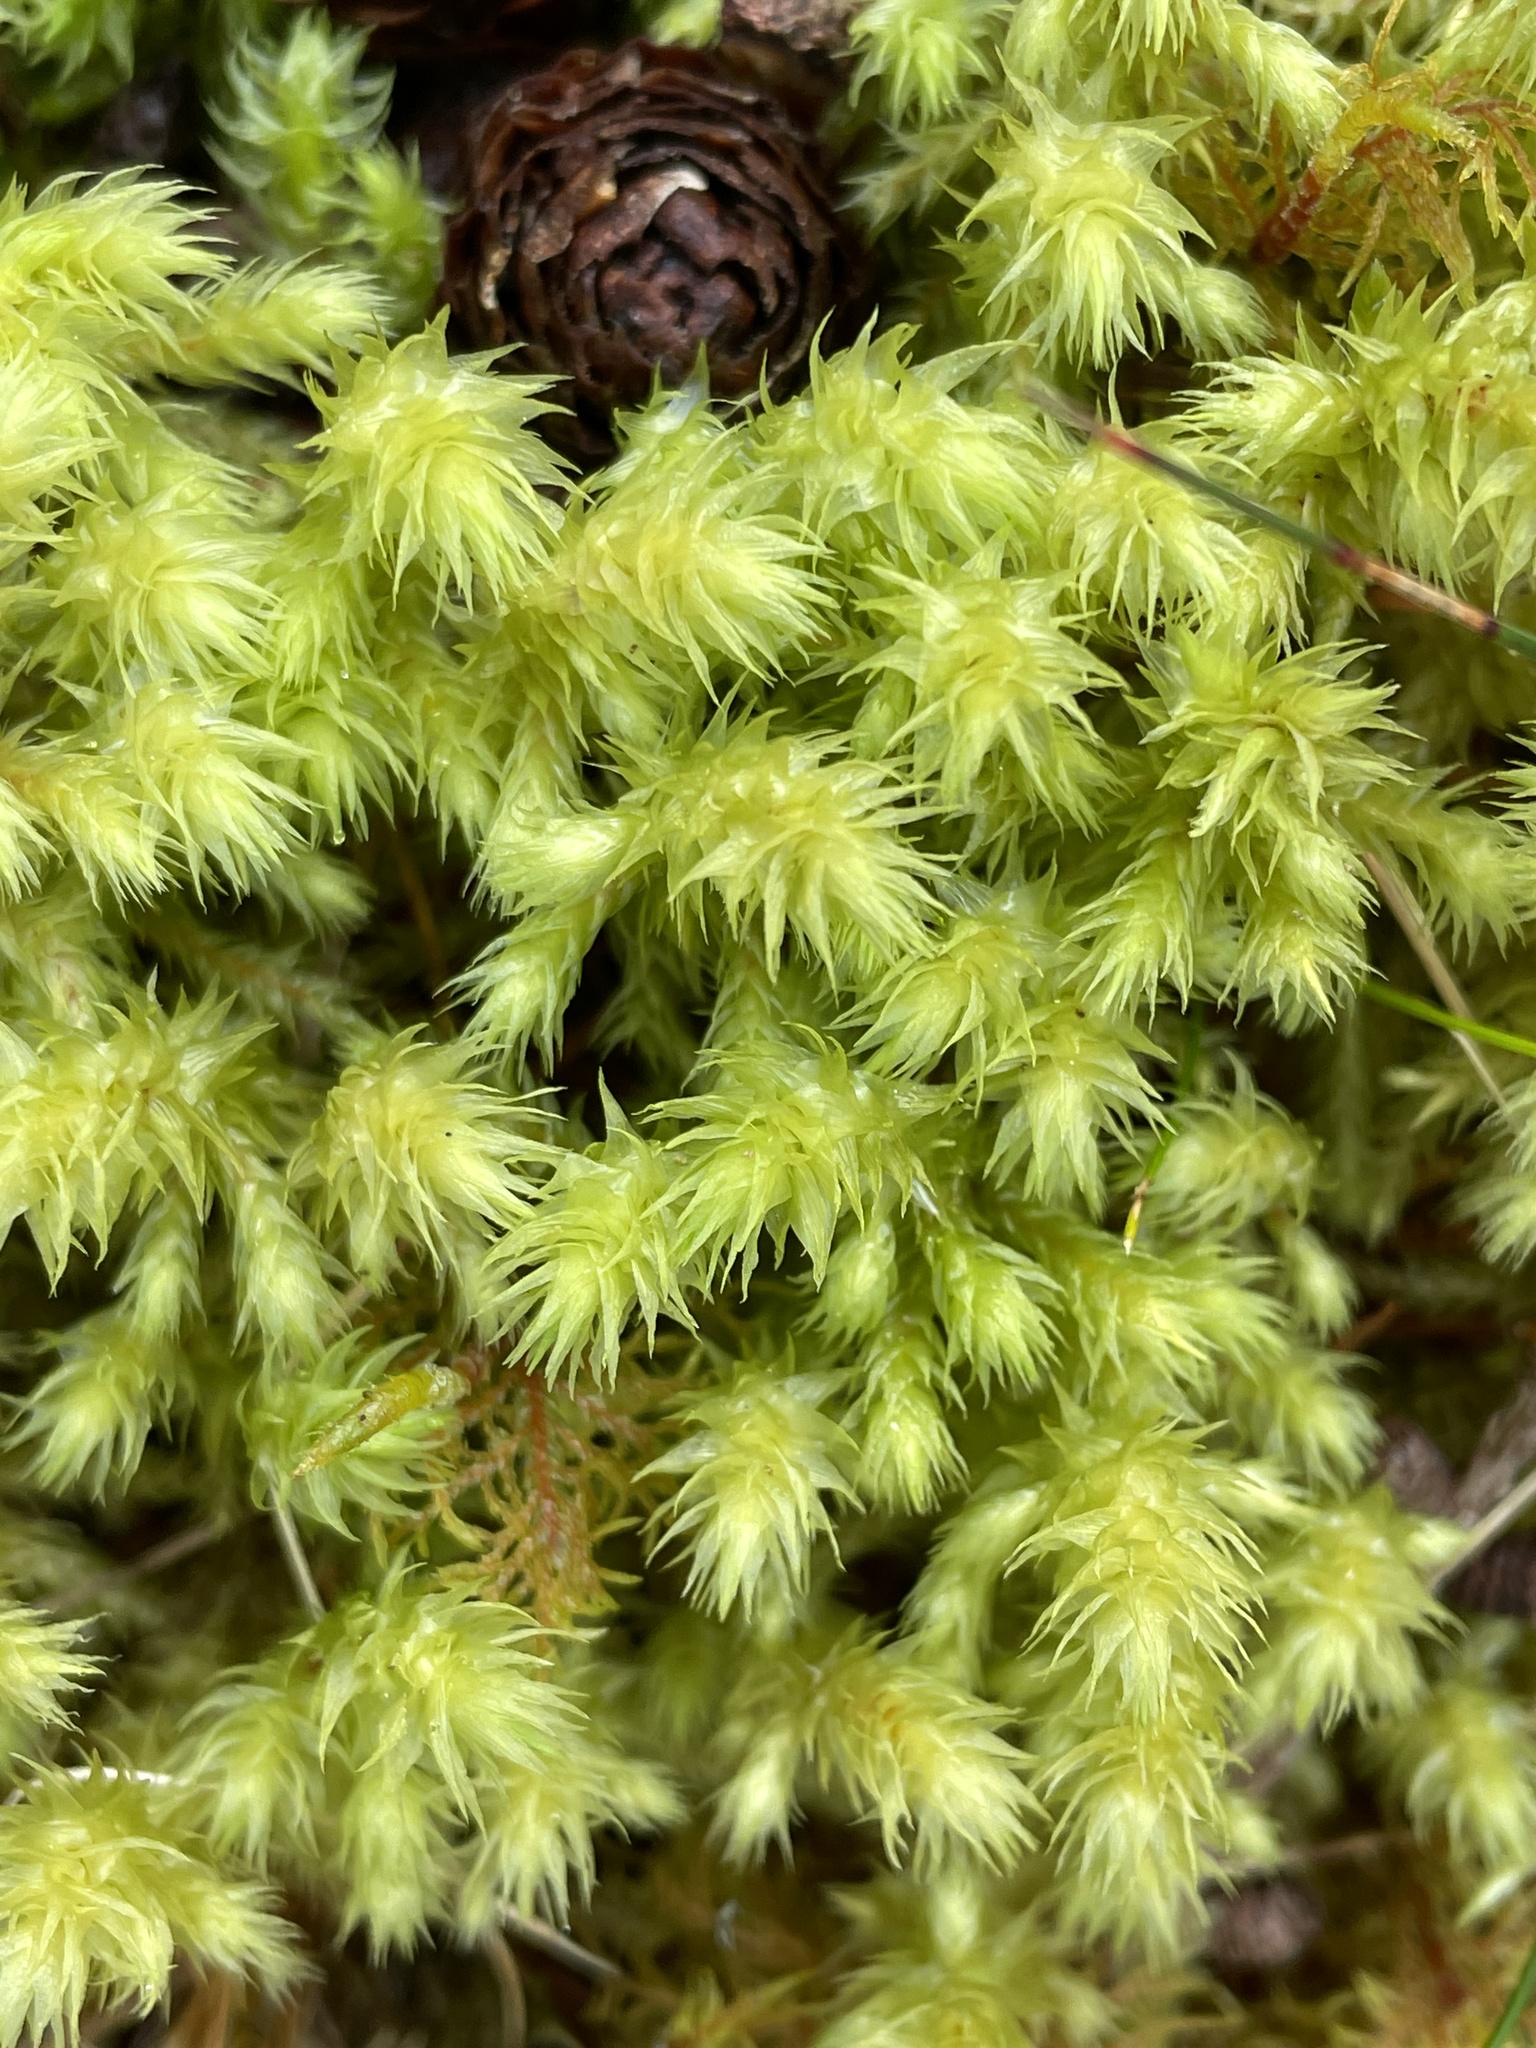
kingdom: Plantae
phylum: Bryophyta
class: Bryopsida
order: Hypnales
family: Hylocomiaceae
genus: Hylocomiadelphus
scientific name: Hylocomiadelphus triquetrus
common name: Rough goose neck moss
